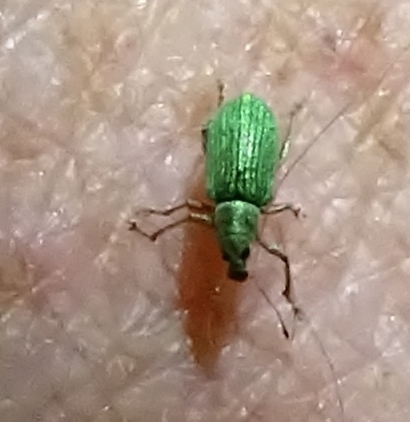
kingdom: Animalia
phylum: Arthropoda
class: Insecta
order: Coleoptera
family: Curculionidae
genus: Polydrusus
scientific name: Polydrusus formosus
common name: Weevil
